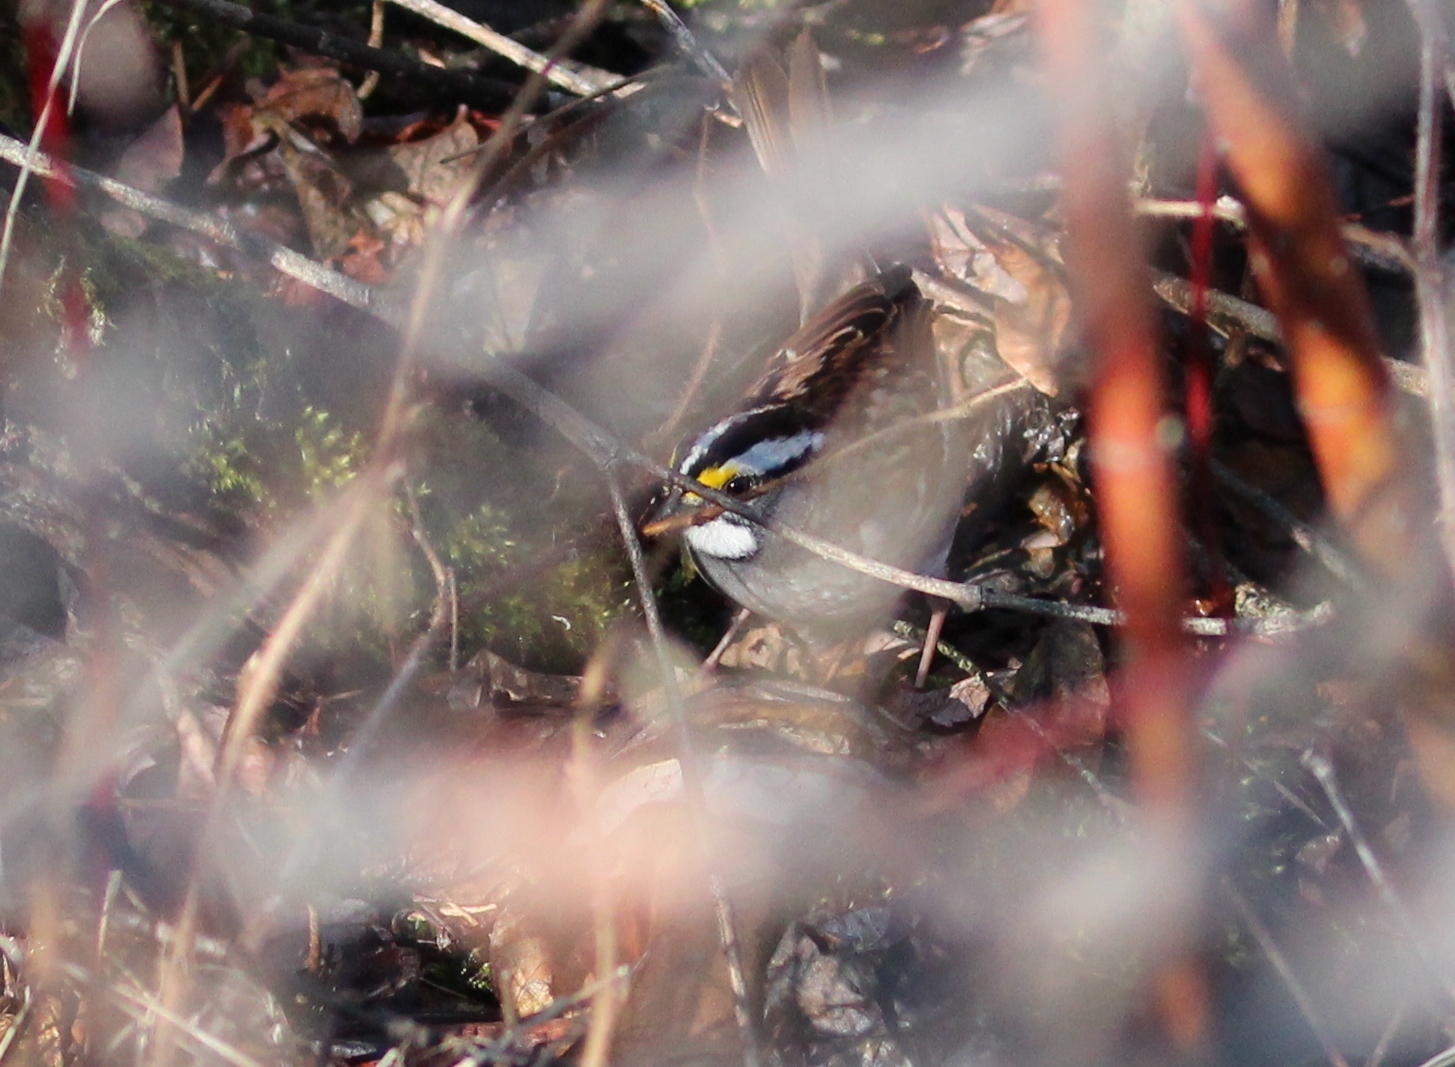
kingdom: Animalia
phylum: Chordata
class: Aves
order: Passeriformes
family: Passerellidae
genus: Zonotrichia
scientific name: Zonotrichia albicollis
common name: White-throated sparrow
